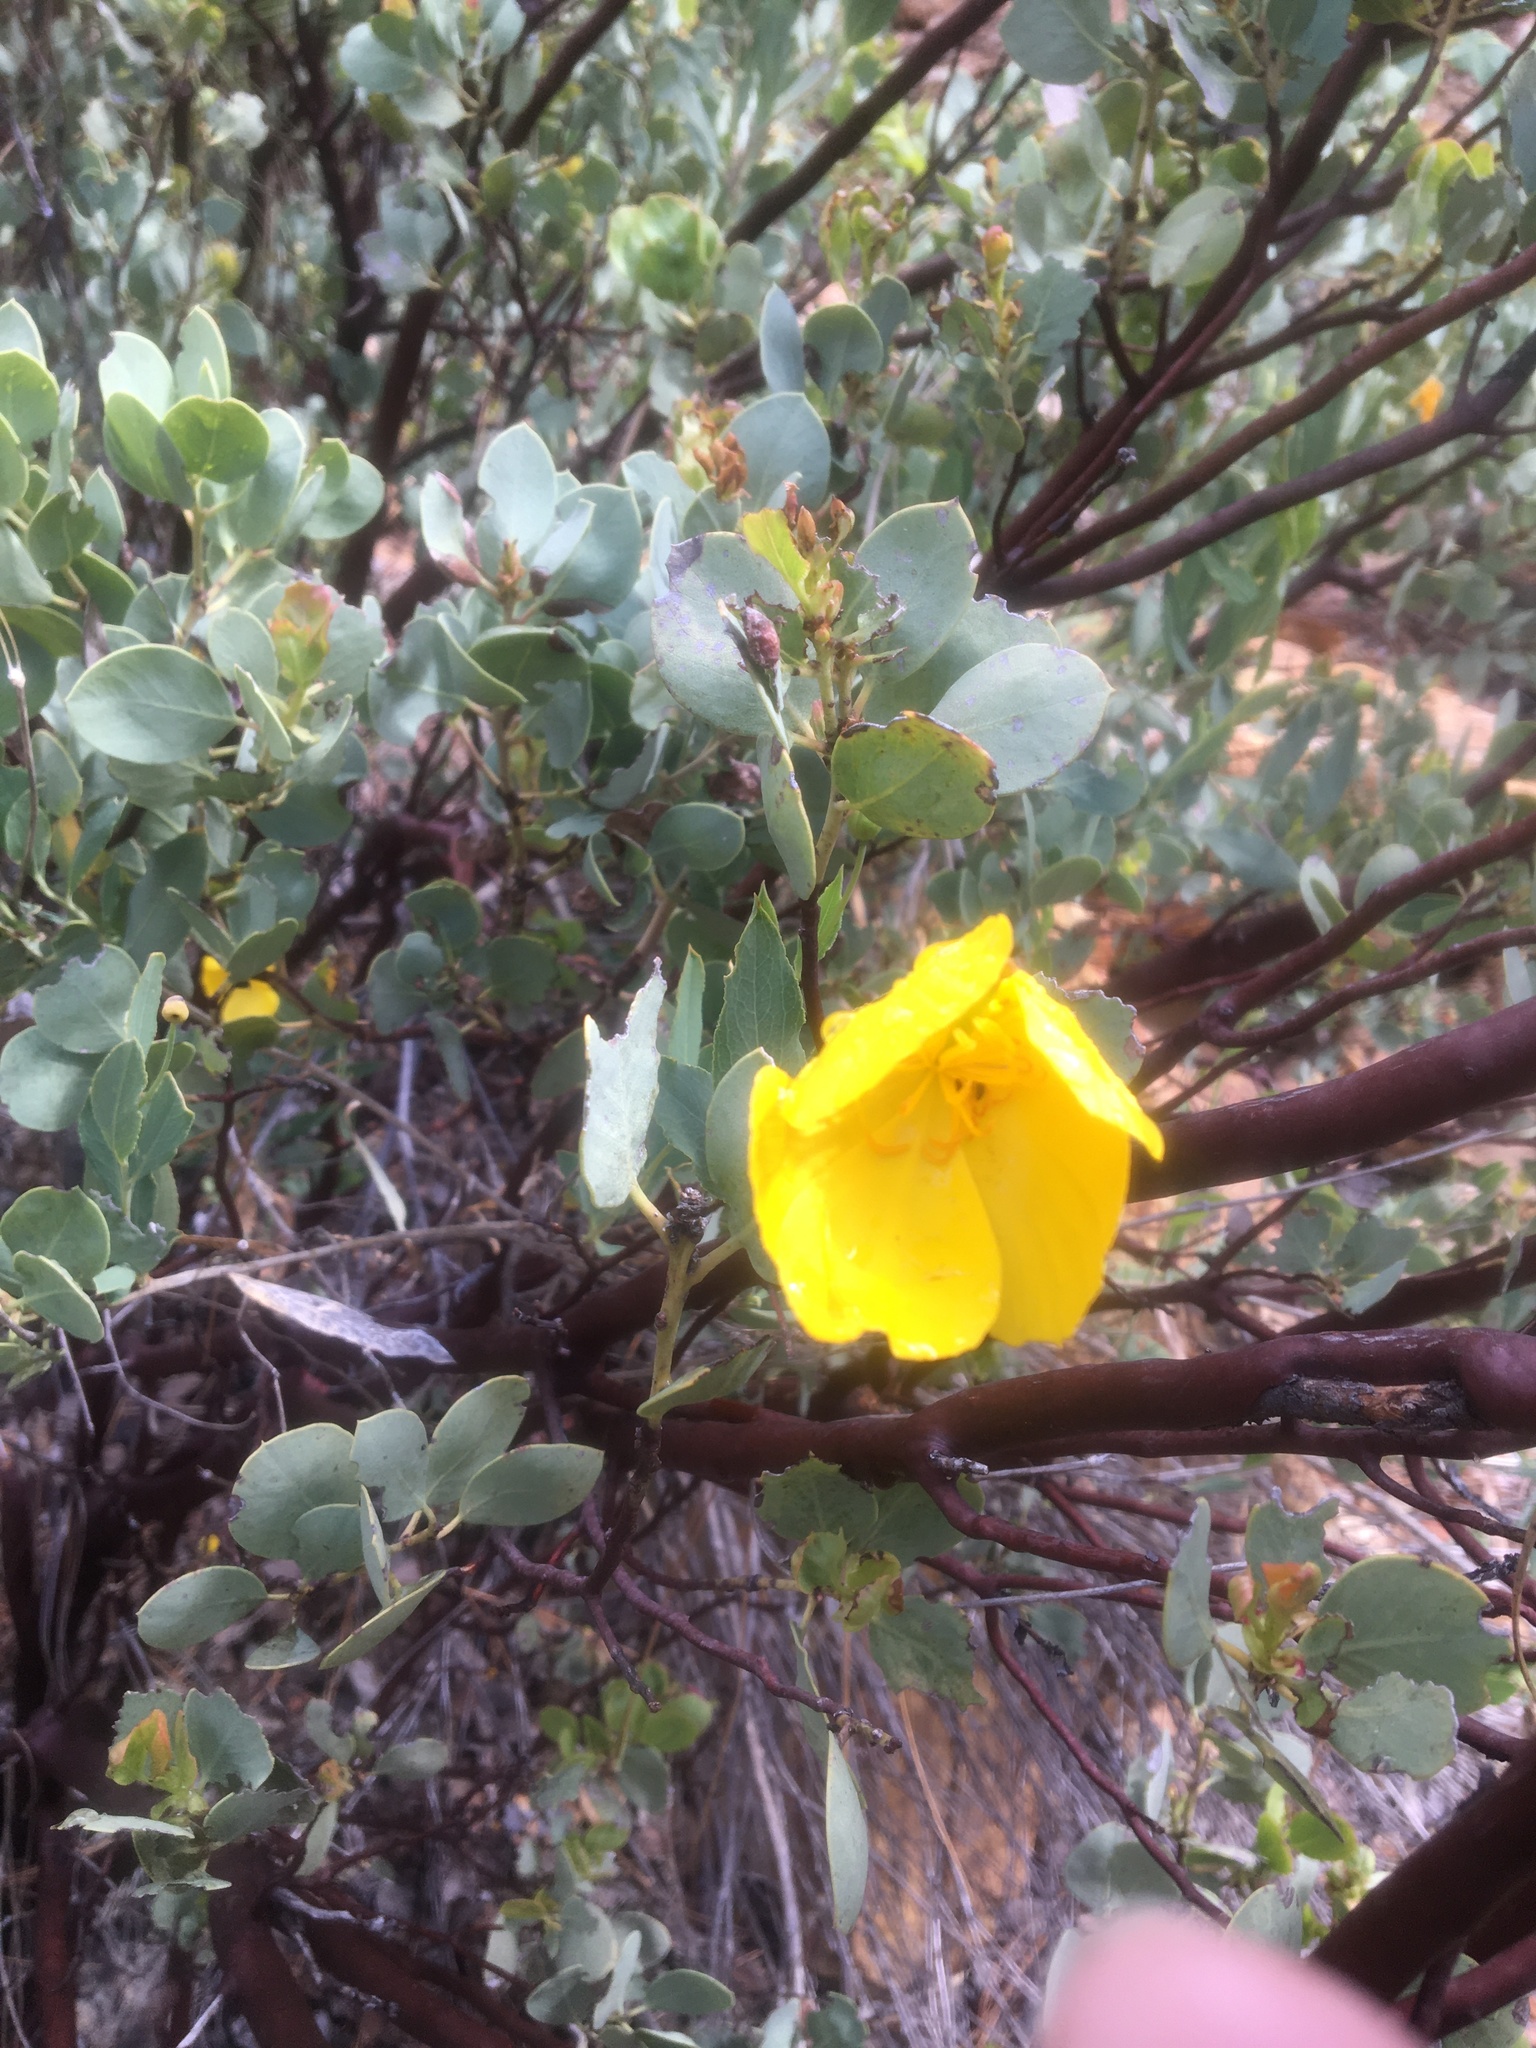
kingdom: Plantae
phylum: Tracheophyta
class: Magnoliopsida
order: Ranunculales
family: Papaveraceae
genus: Dendromecon
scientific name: Dendromecon rigida
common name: Tree poppy
